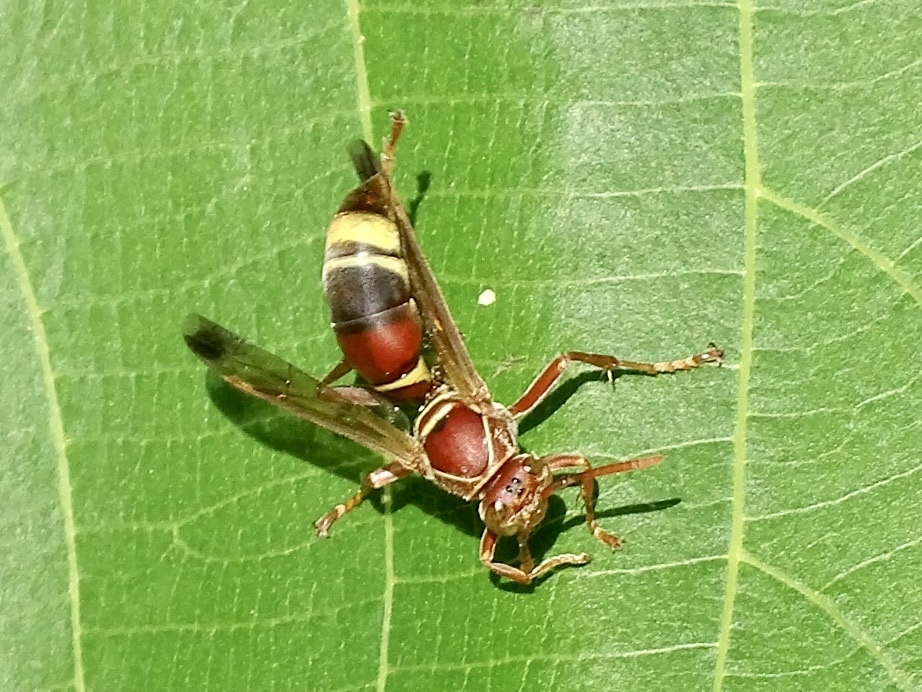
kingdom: Animalia
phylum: Arthropoda
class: Insecta
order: Hymenoptera
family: Eumenidae
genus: Polistes
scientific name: Polistes stigma
